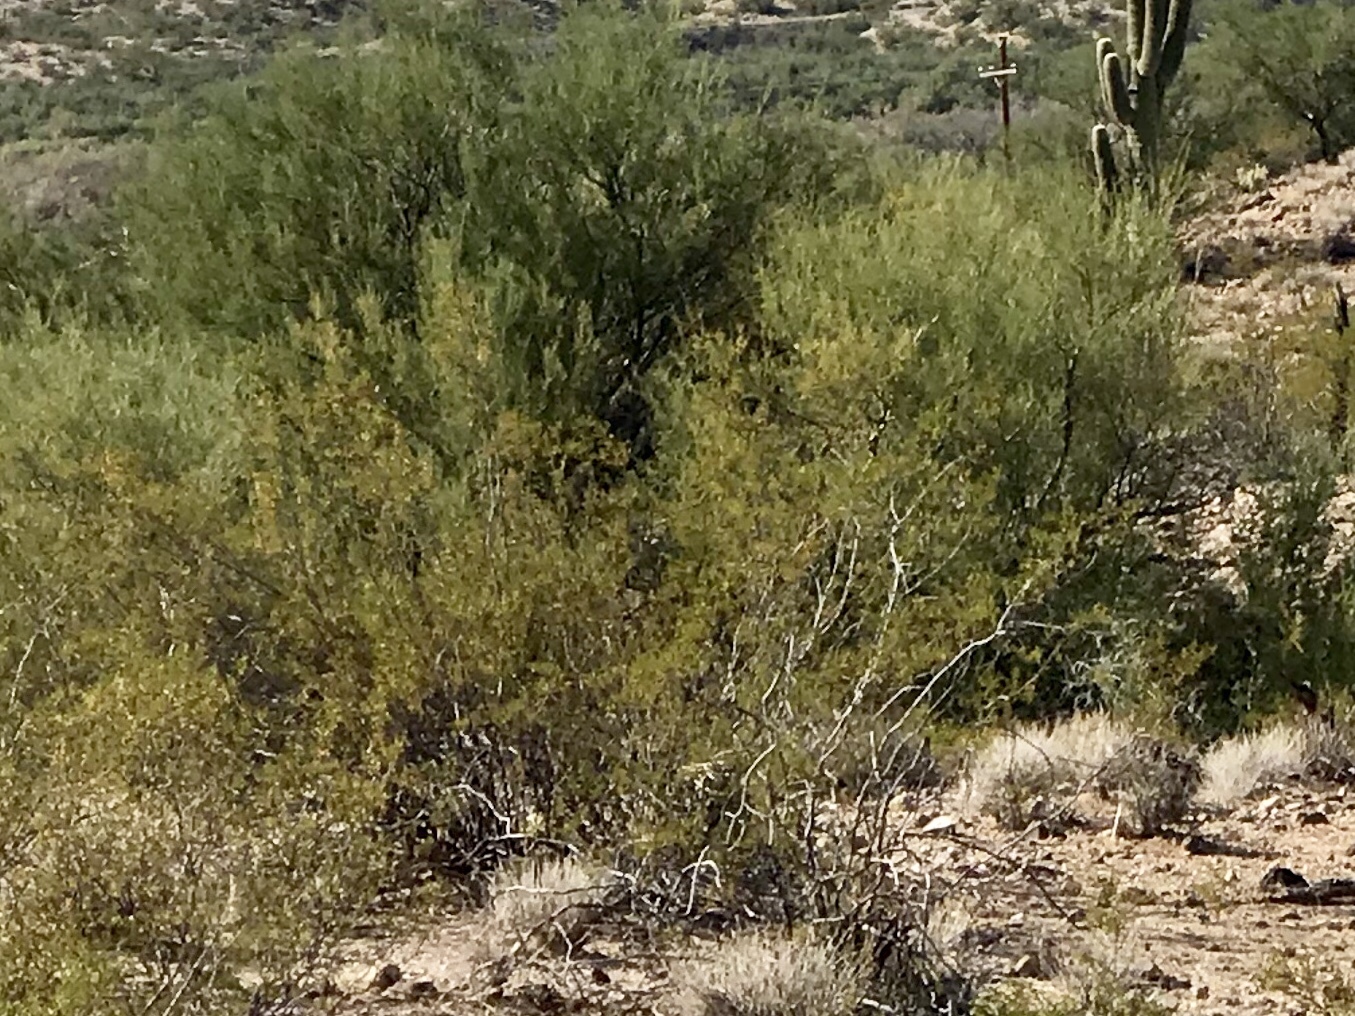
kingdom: Plantae
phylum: Tracheophyta
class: Magnoliopsida
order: Zygophyllales
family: Zygophyllaceae
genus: Larrea
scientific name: Larrea tridentata
